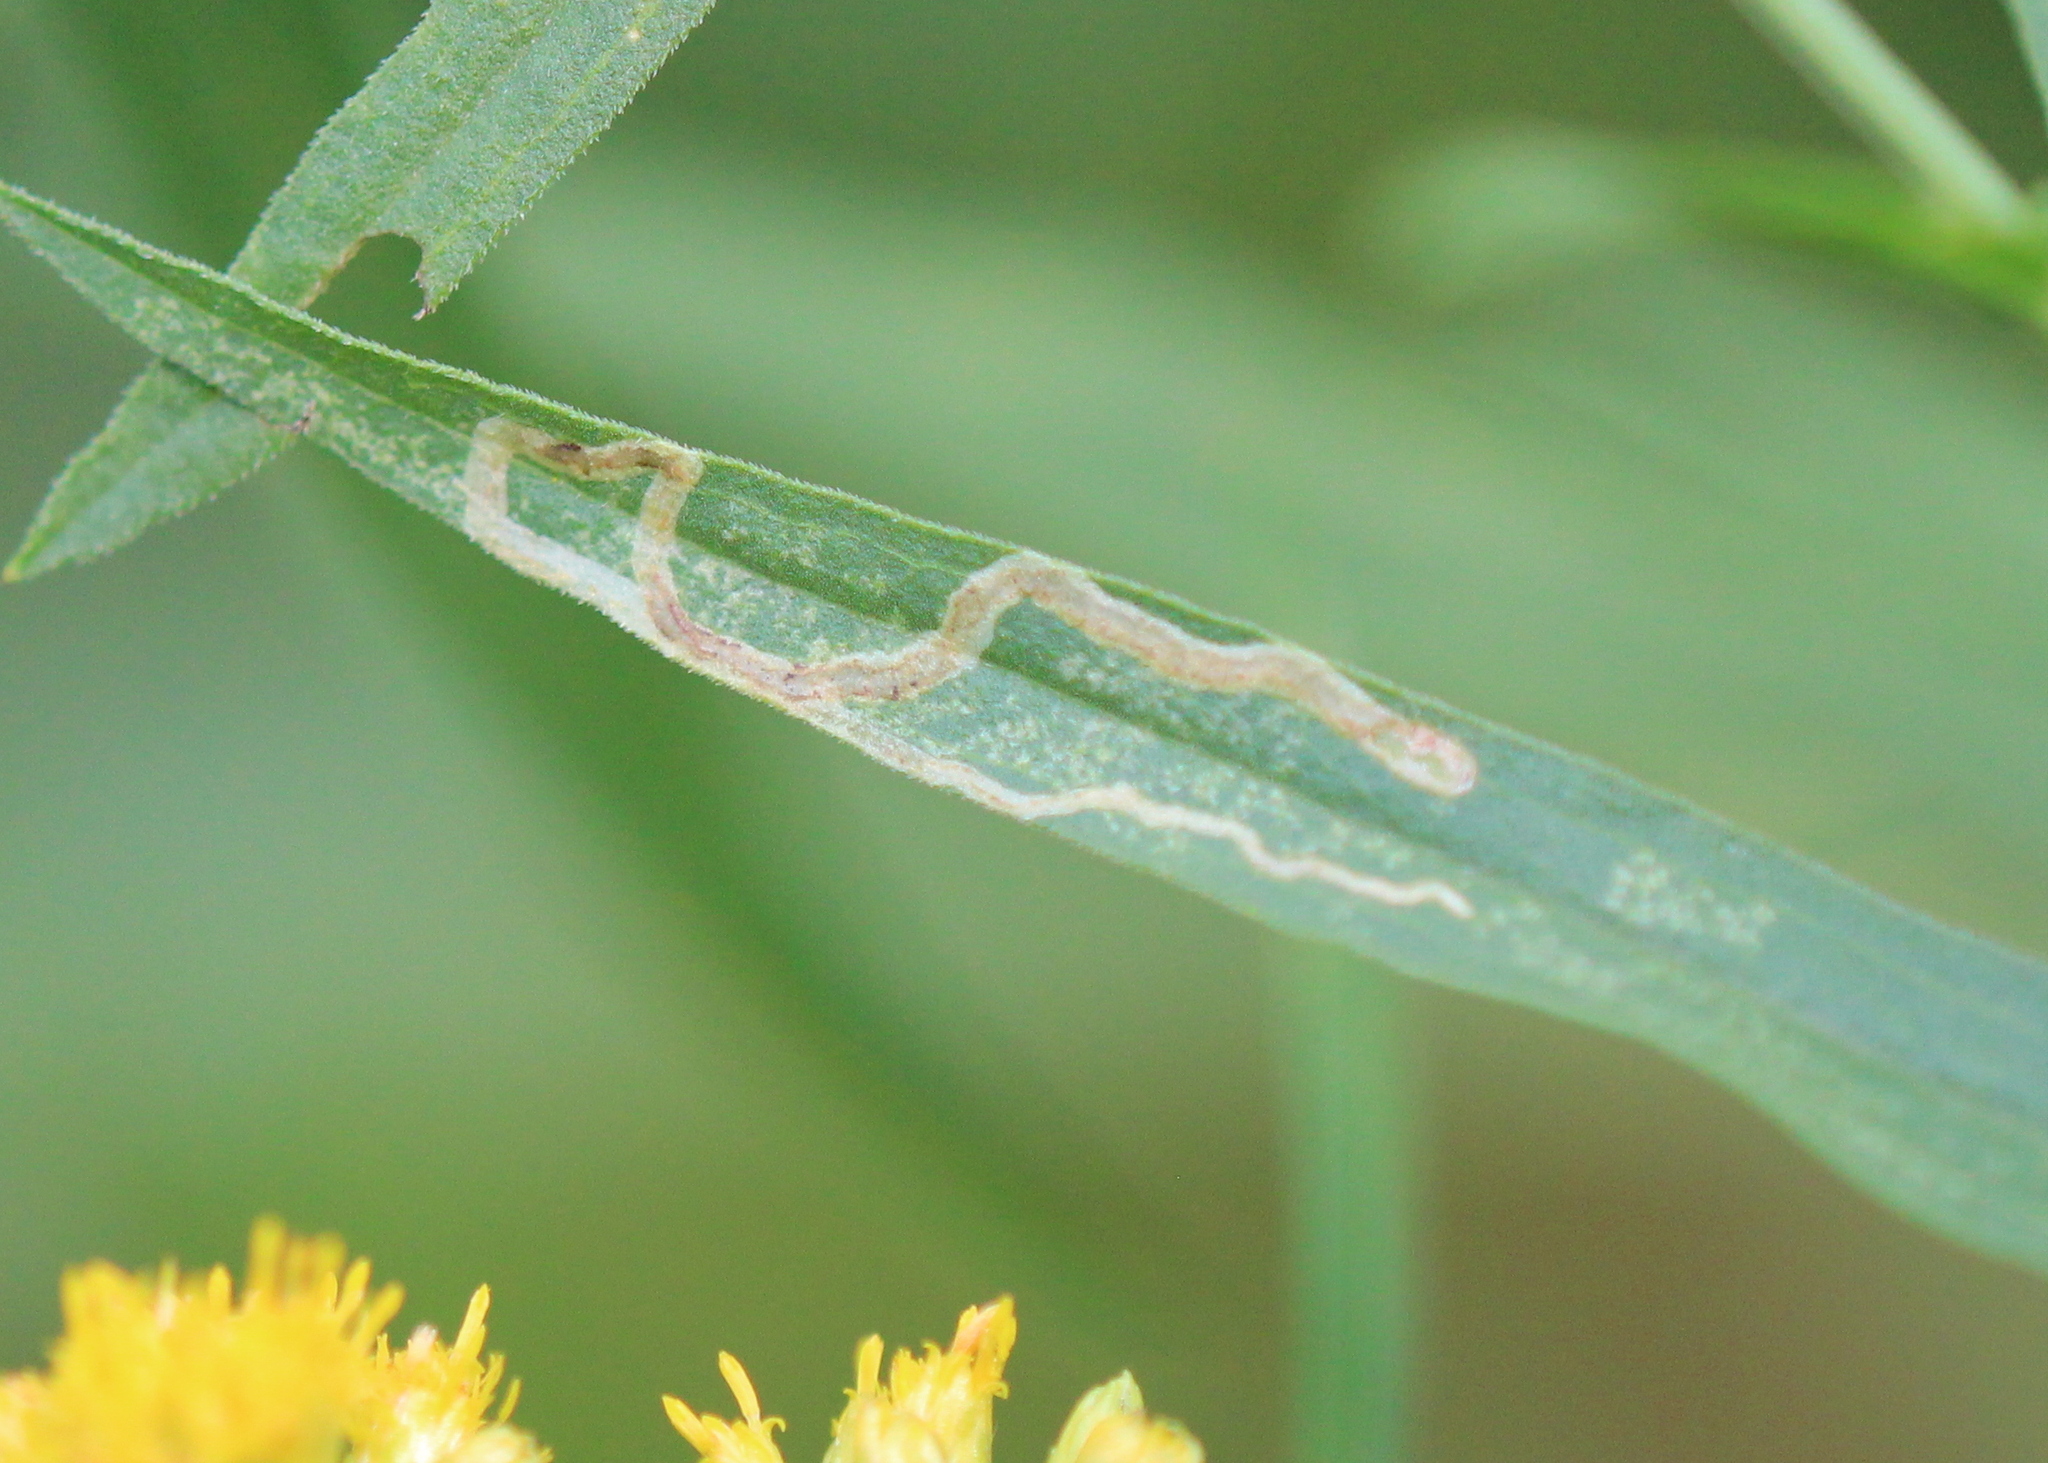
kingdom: Animalia
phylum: Arthropoda
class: Insecta
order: Diptera
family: Agromyzidae
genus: Liriomyza
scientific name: Liriomyza eupatorii
